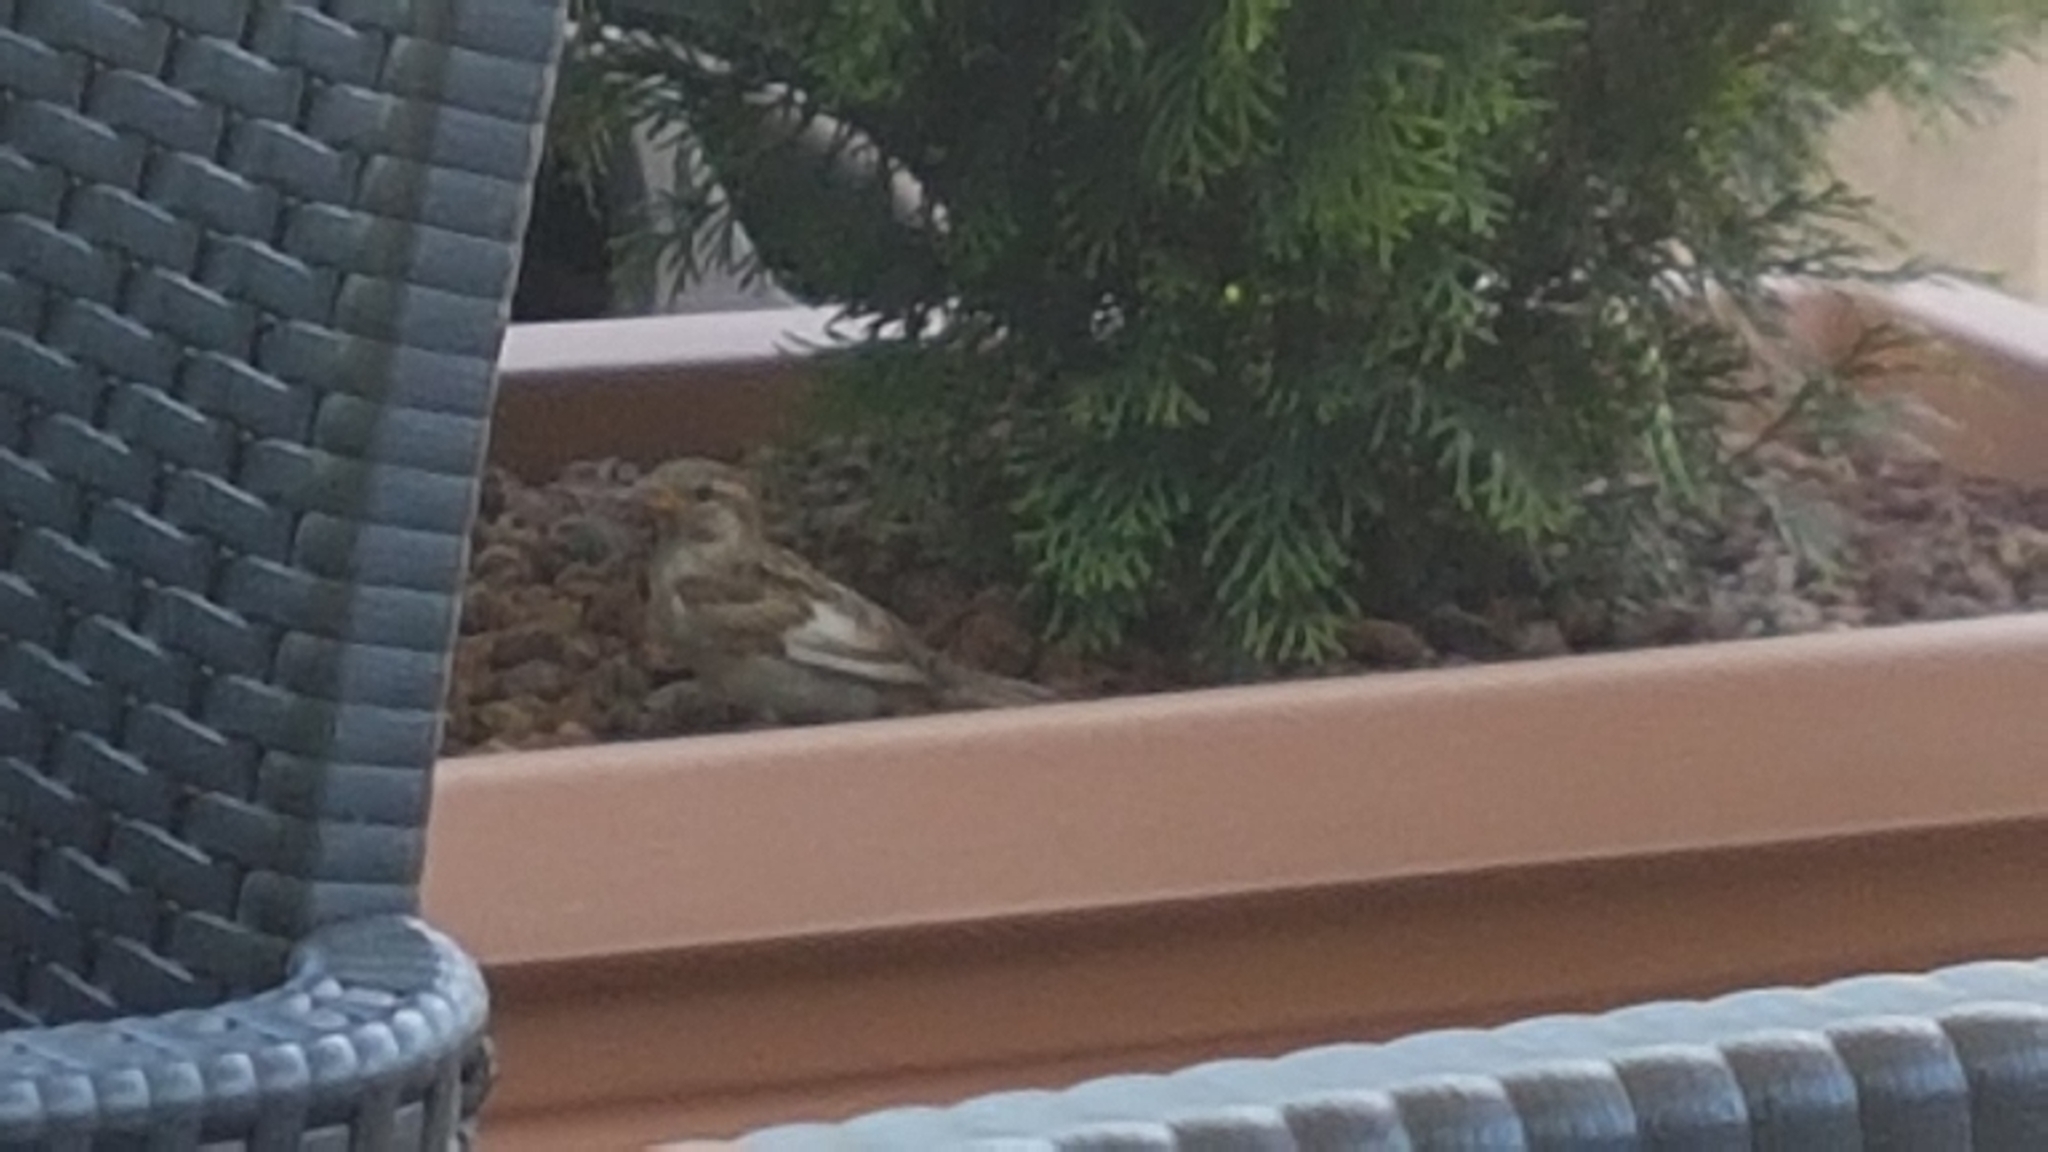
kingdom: Animalia
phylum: Chordata
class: Aves
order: Passeriformes
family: Passeridae
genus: Passer
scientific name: Passer italiae
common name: Italian sparrow
